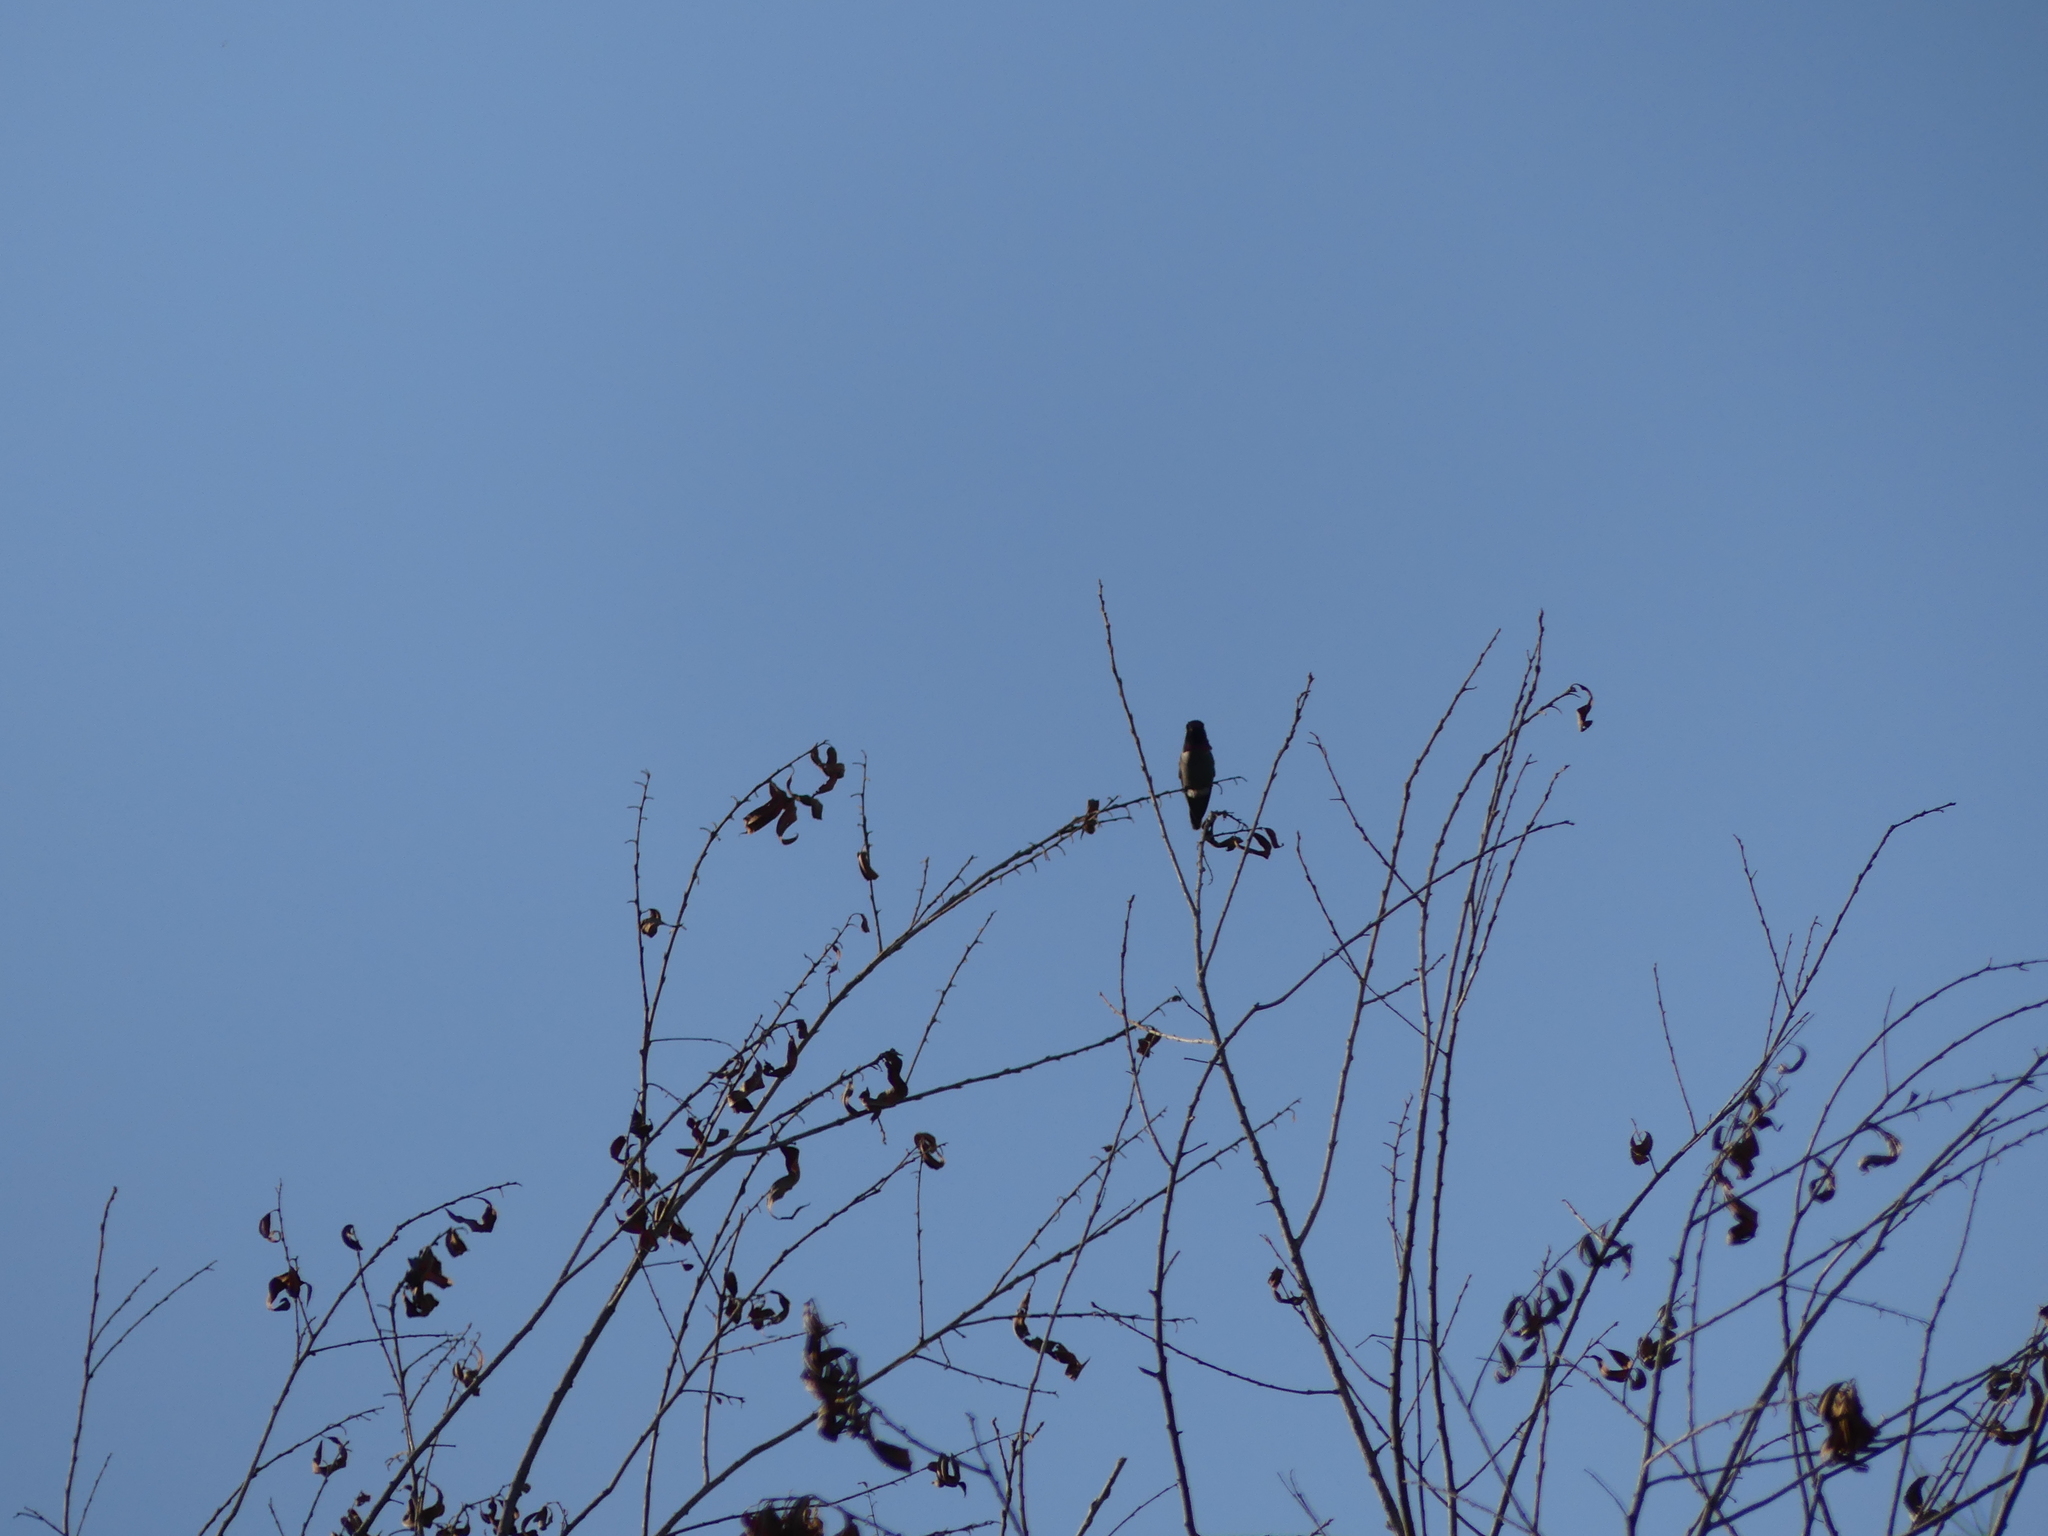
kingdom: Animalia
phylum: Chordata
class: Aves
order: Apodiformes
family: Trochilidae
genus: Calypte
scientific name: Calypte anna
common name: Anna's hummingbird
